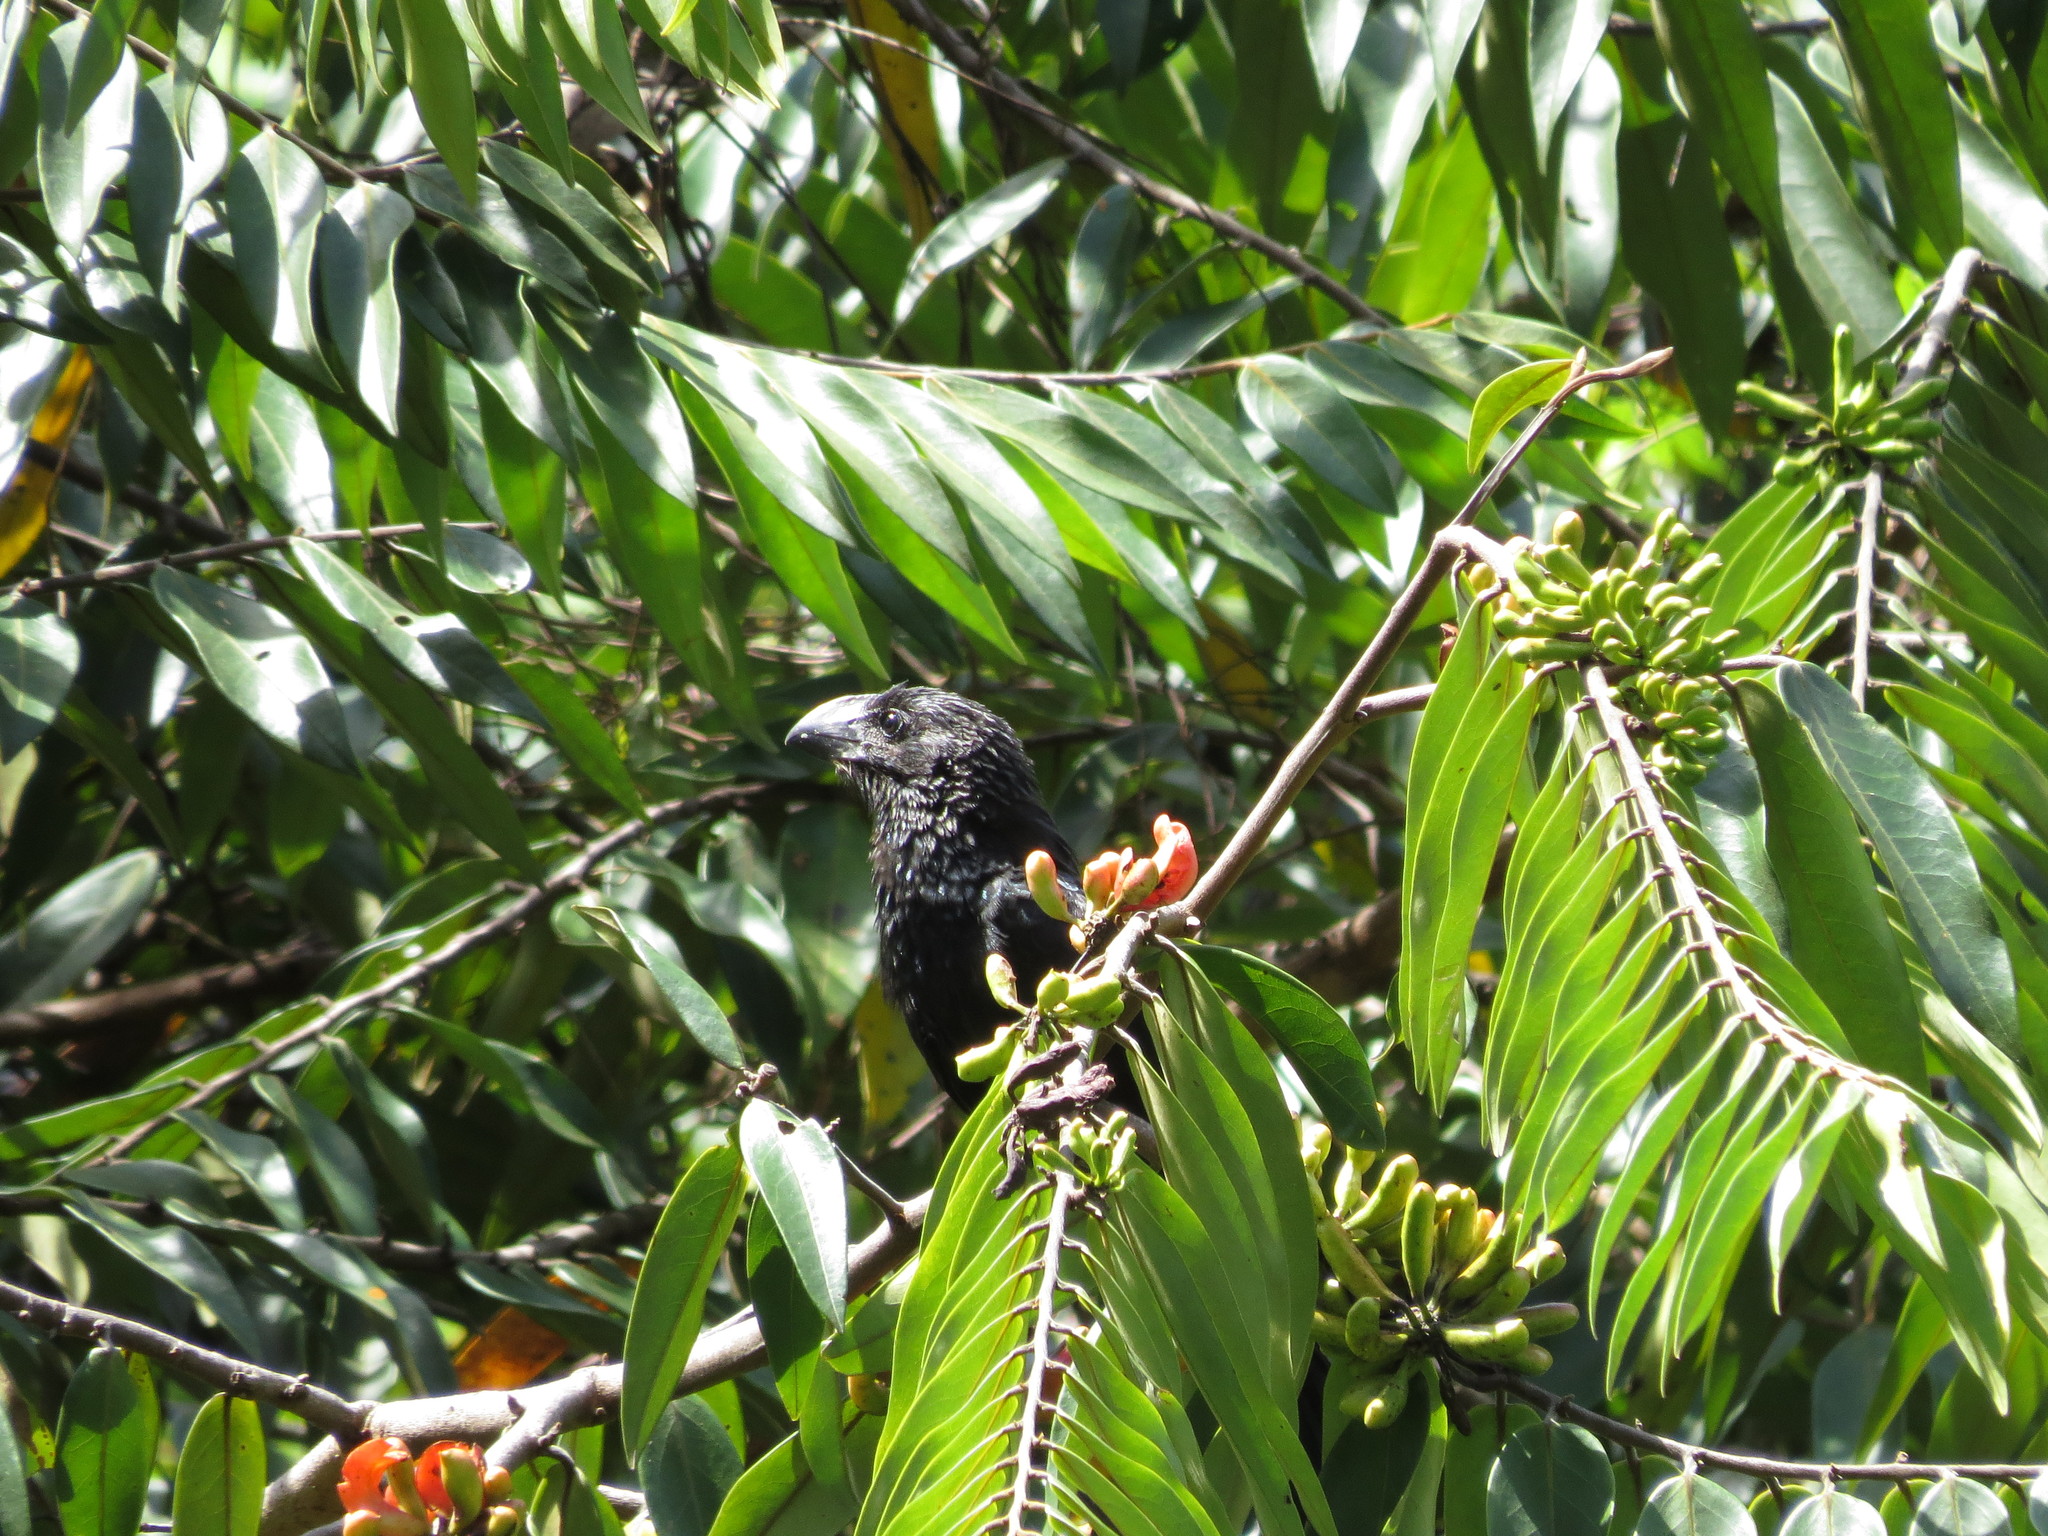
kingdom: Animalia
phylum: Chordata
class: Aves
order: Cuculiformes
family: Cuculidae
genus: Crotophaga
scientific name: Crotophaga ani
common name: Smooth-billed ani
